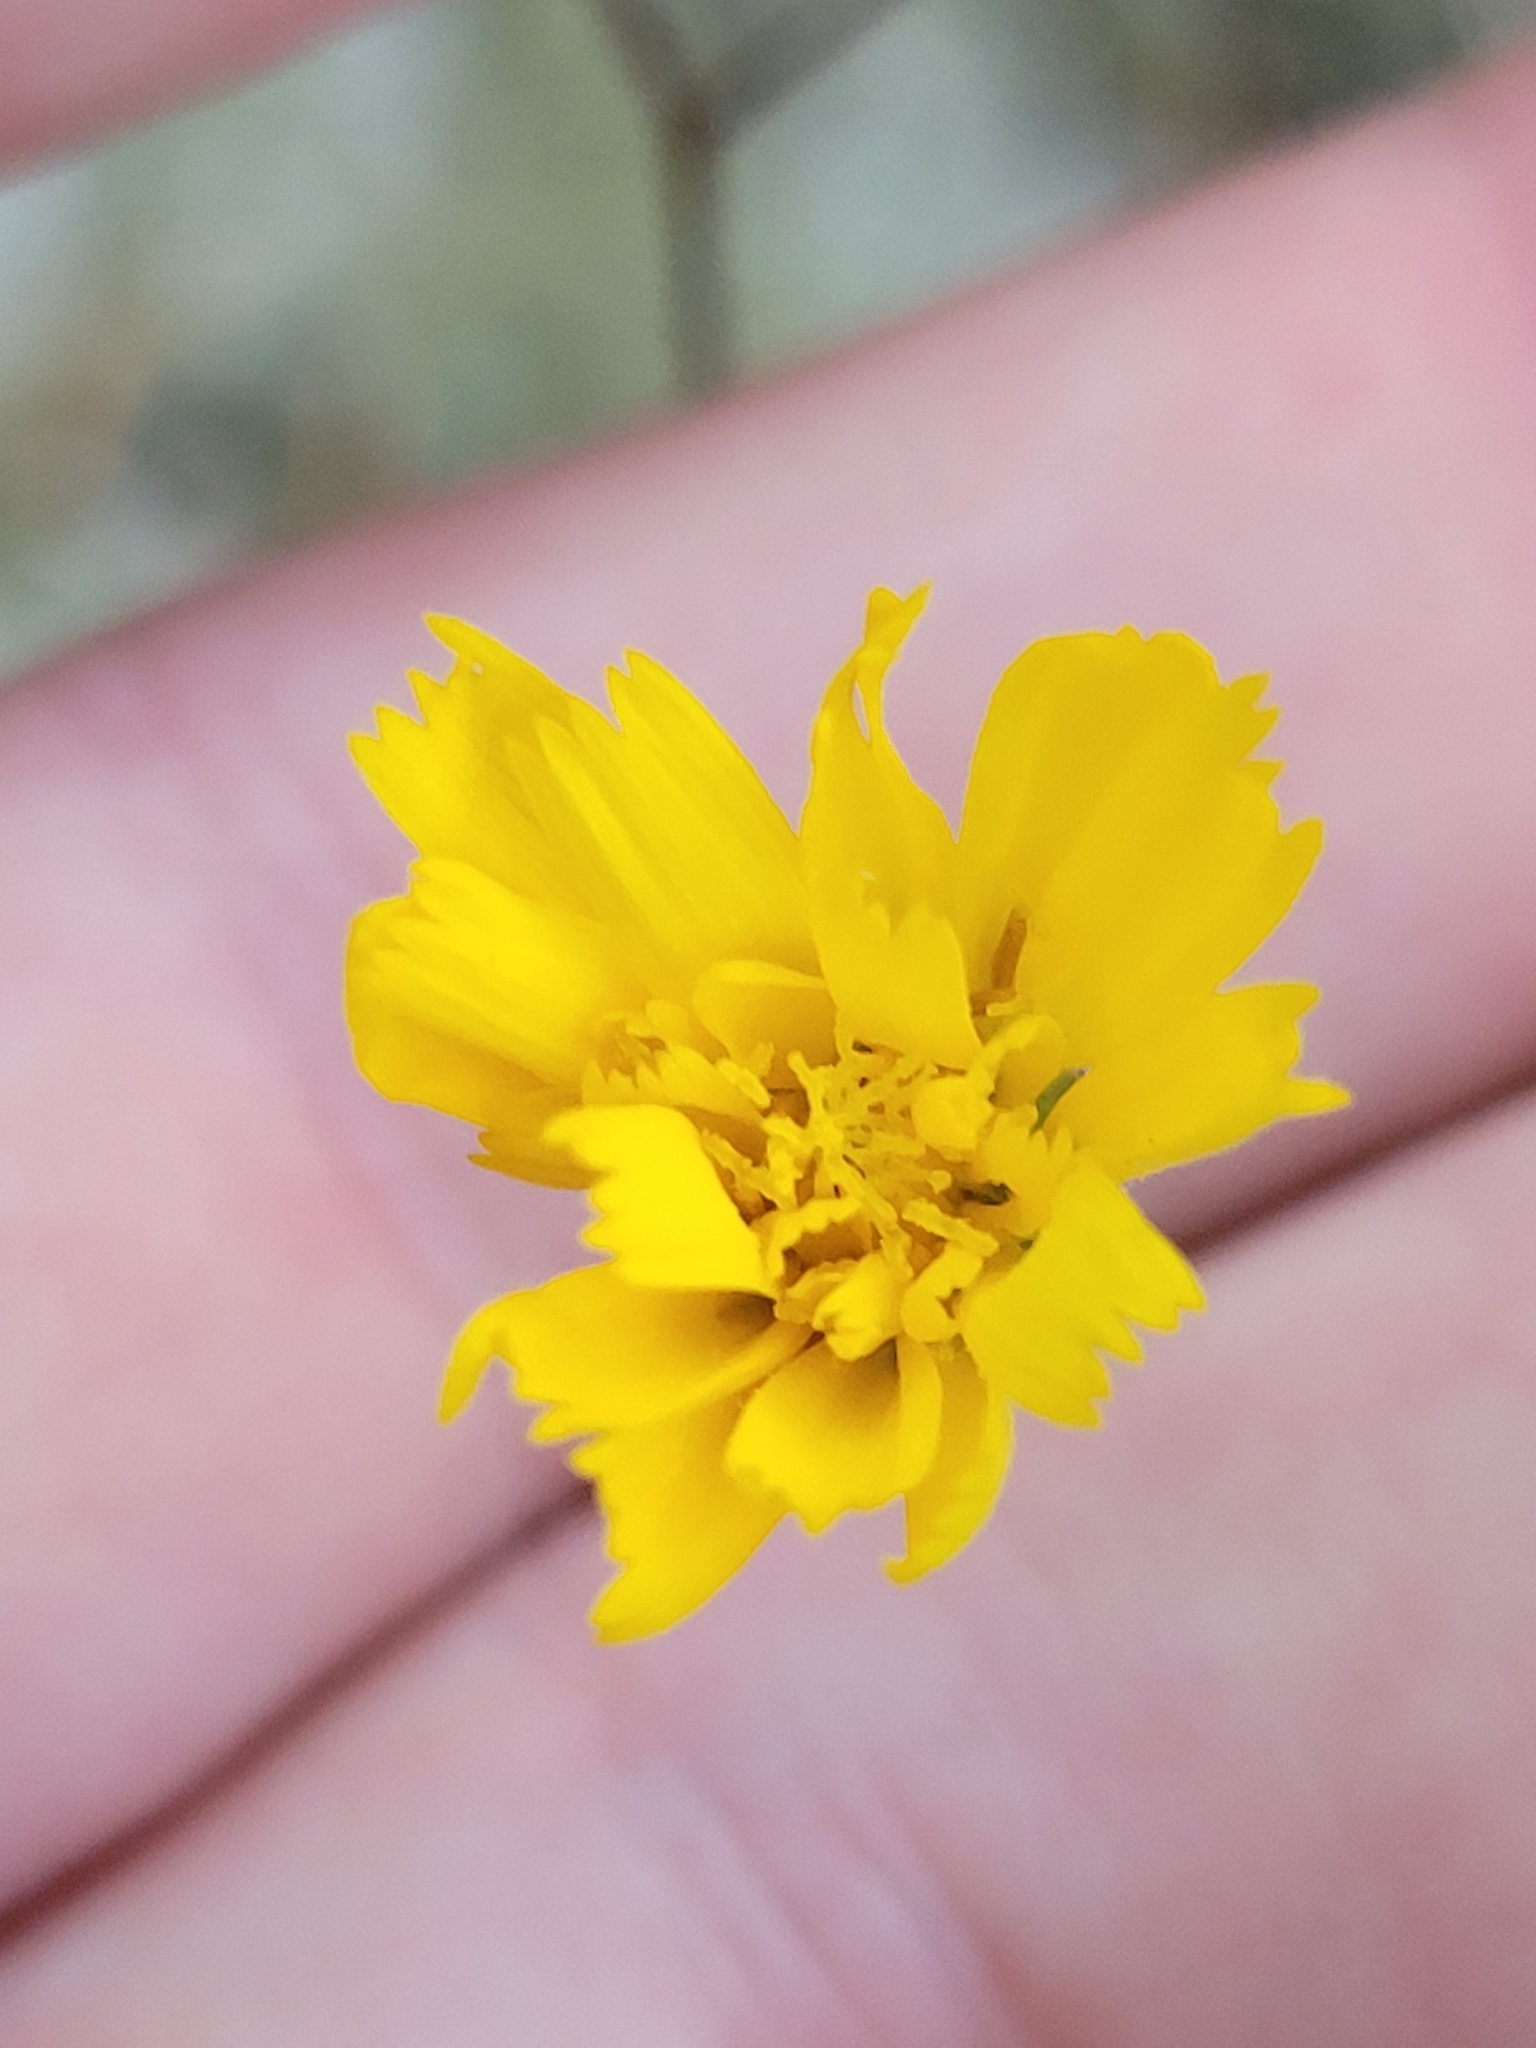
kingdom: Plantae
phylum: Tracheophyta
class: Magnoliopsida
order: Asterales
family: Asteraceae
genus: Hieracium
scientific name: Hieracium venosum
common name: Rattlesnake hawkweed
